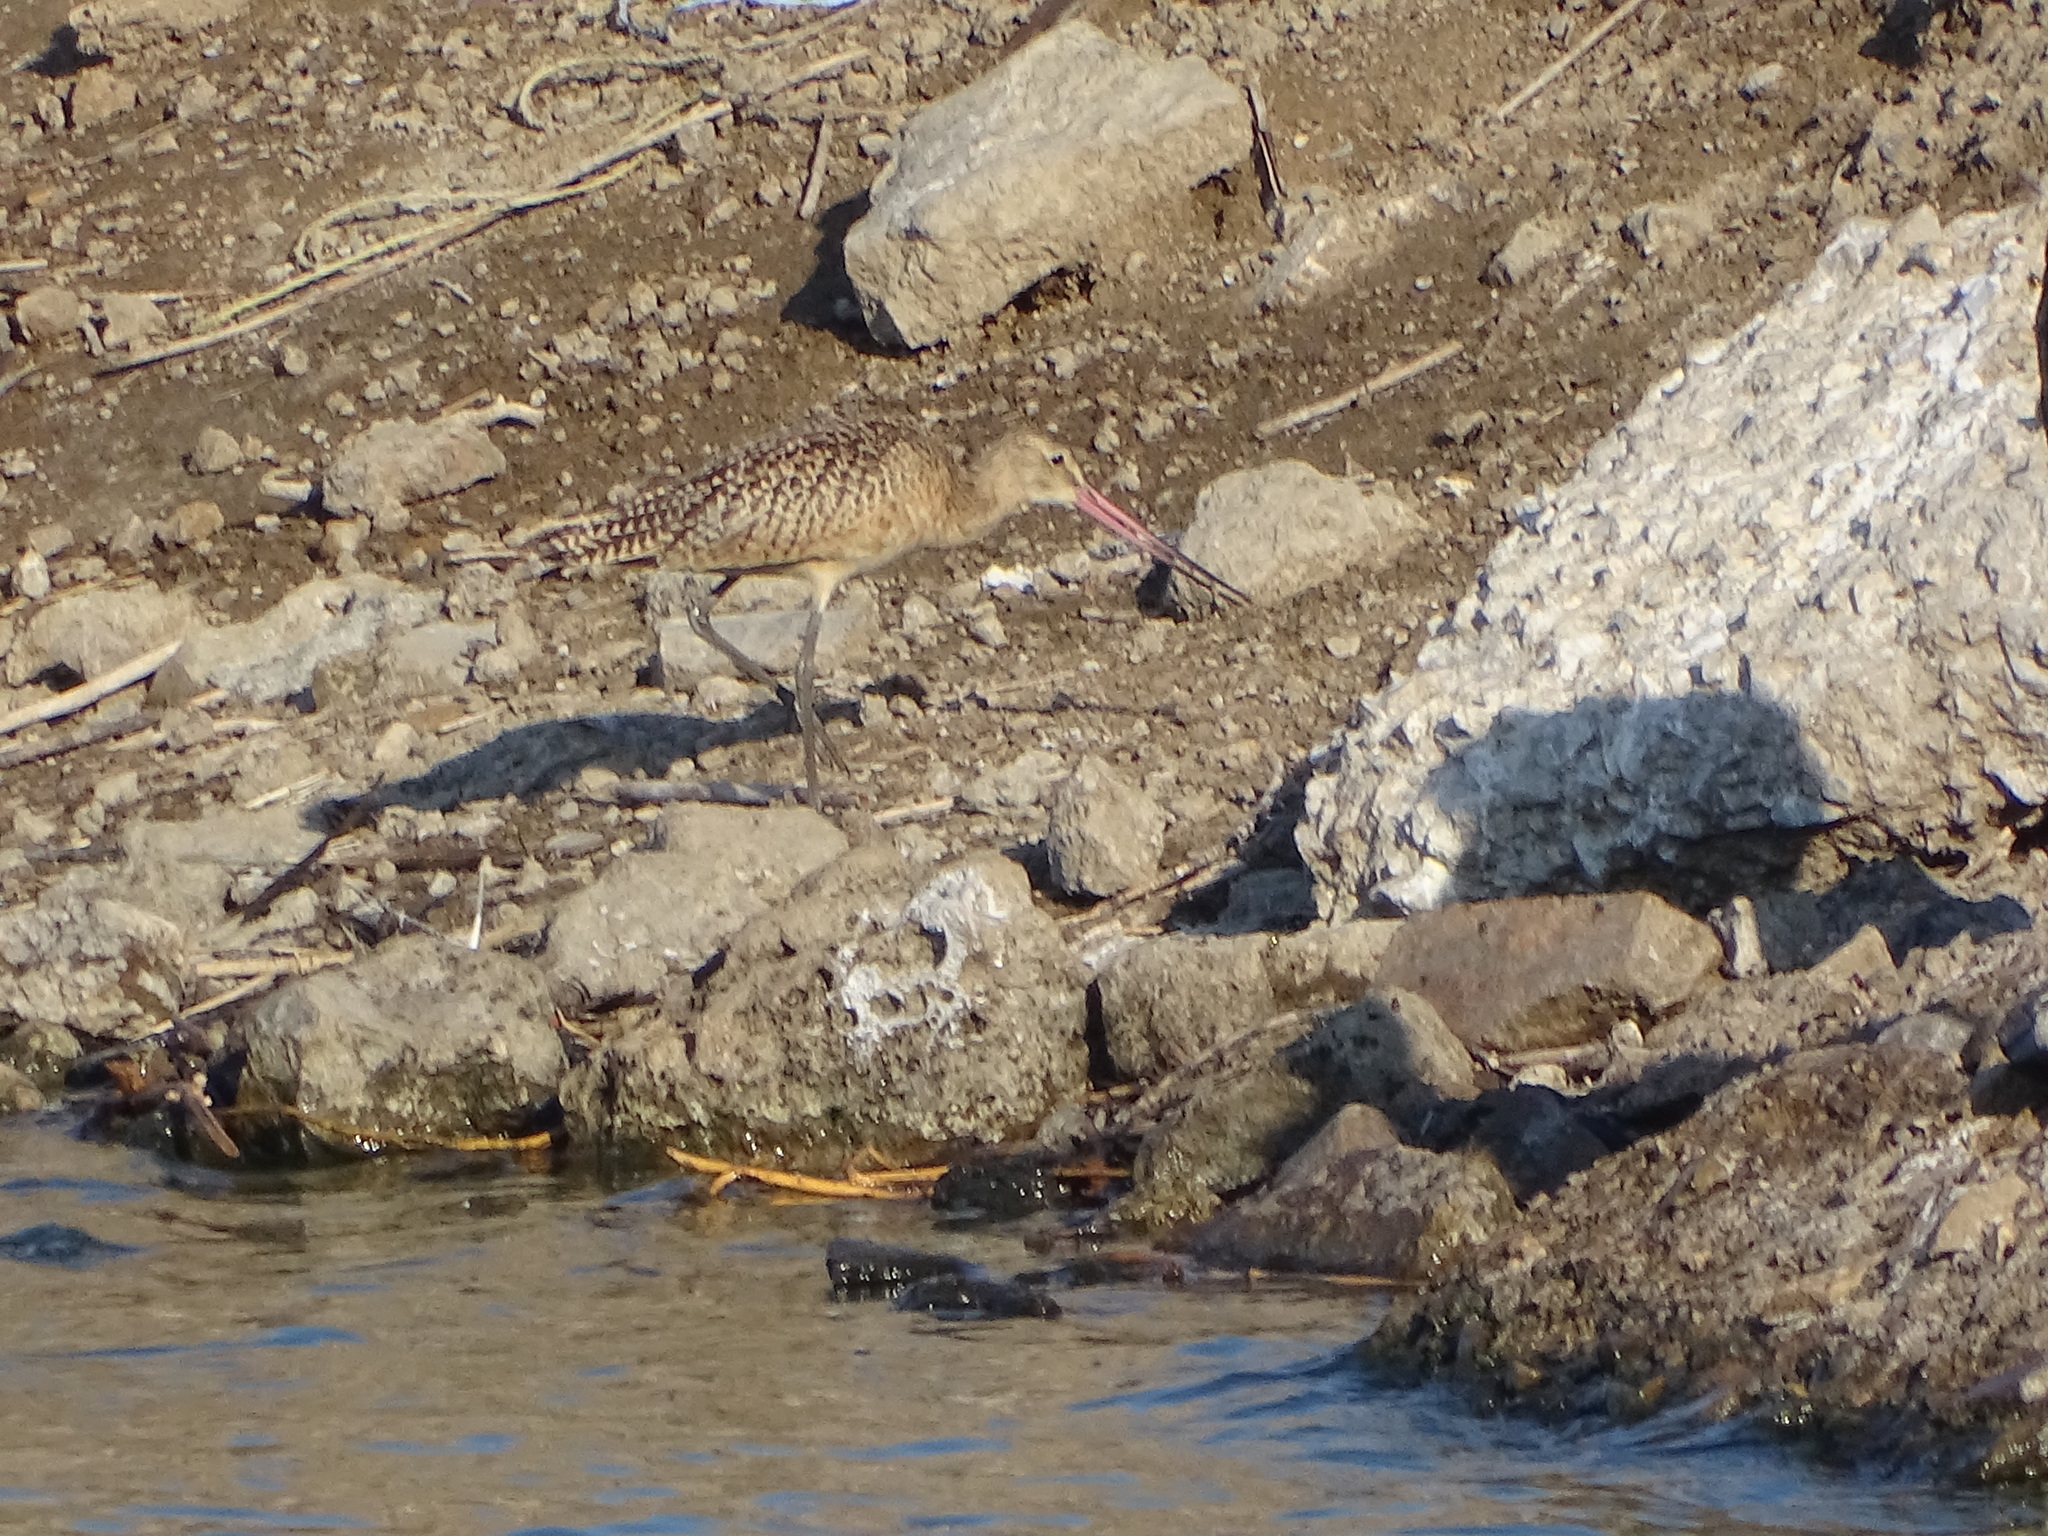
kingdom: Animalia
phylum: Chordata
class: Aves
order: Charadriiformes
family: Scolopacidae
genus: Limosa
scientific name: Limosa fedoa
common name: Marbled godwit
